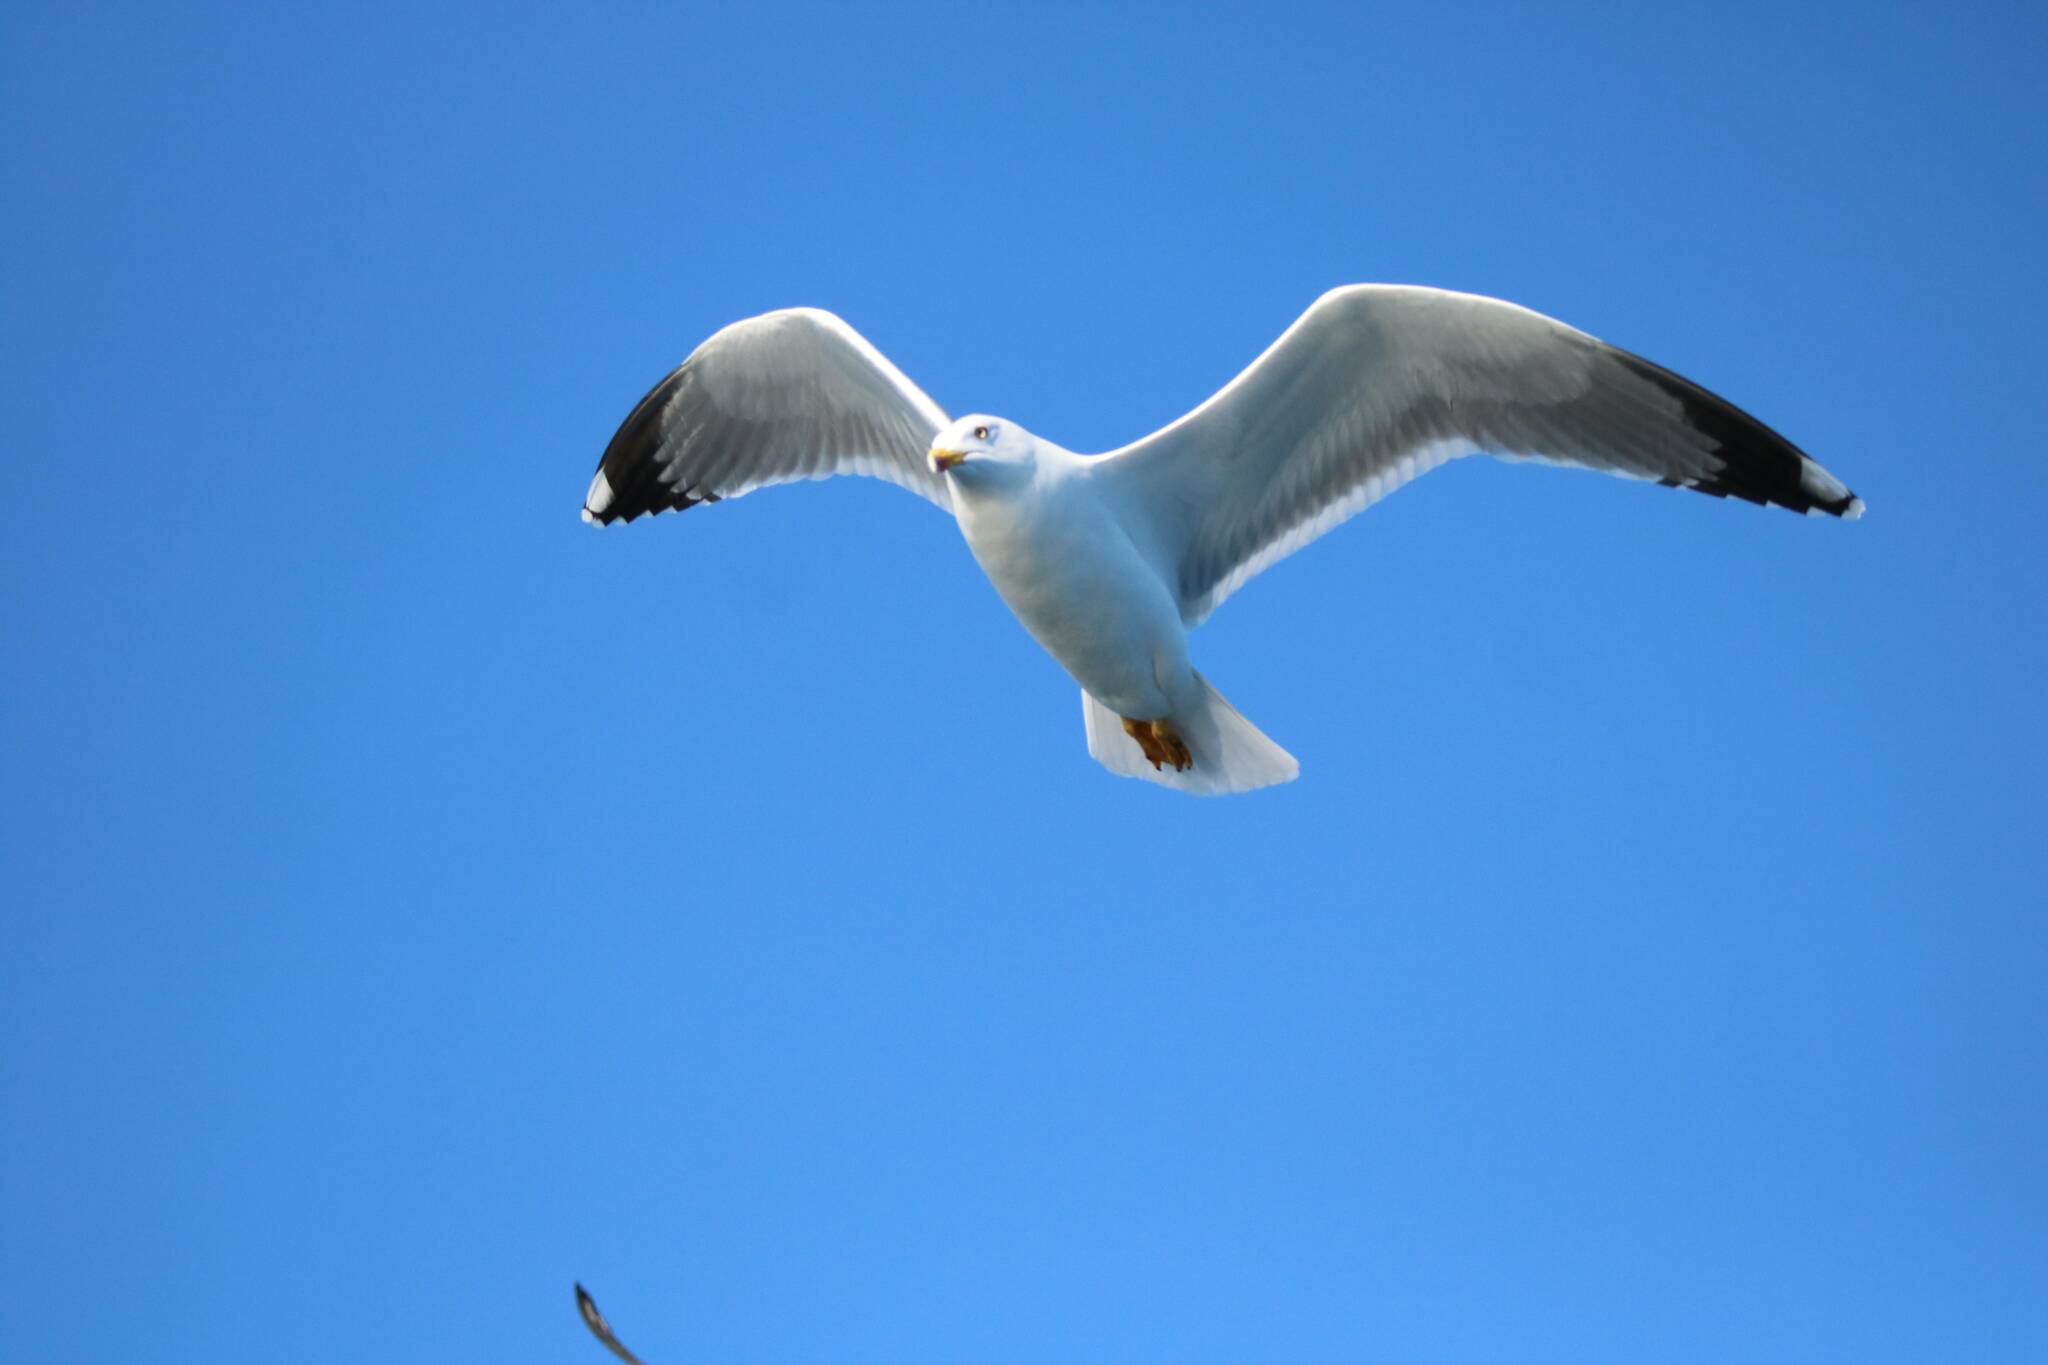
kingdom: Animalia
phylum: Chordata
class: Aves
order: Charadriiformes
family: Laridae
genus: Larus
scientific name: Larus michahellis
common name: Yellow-legged gull
